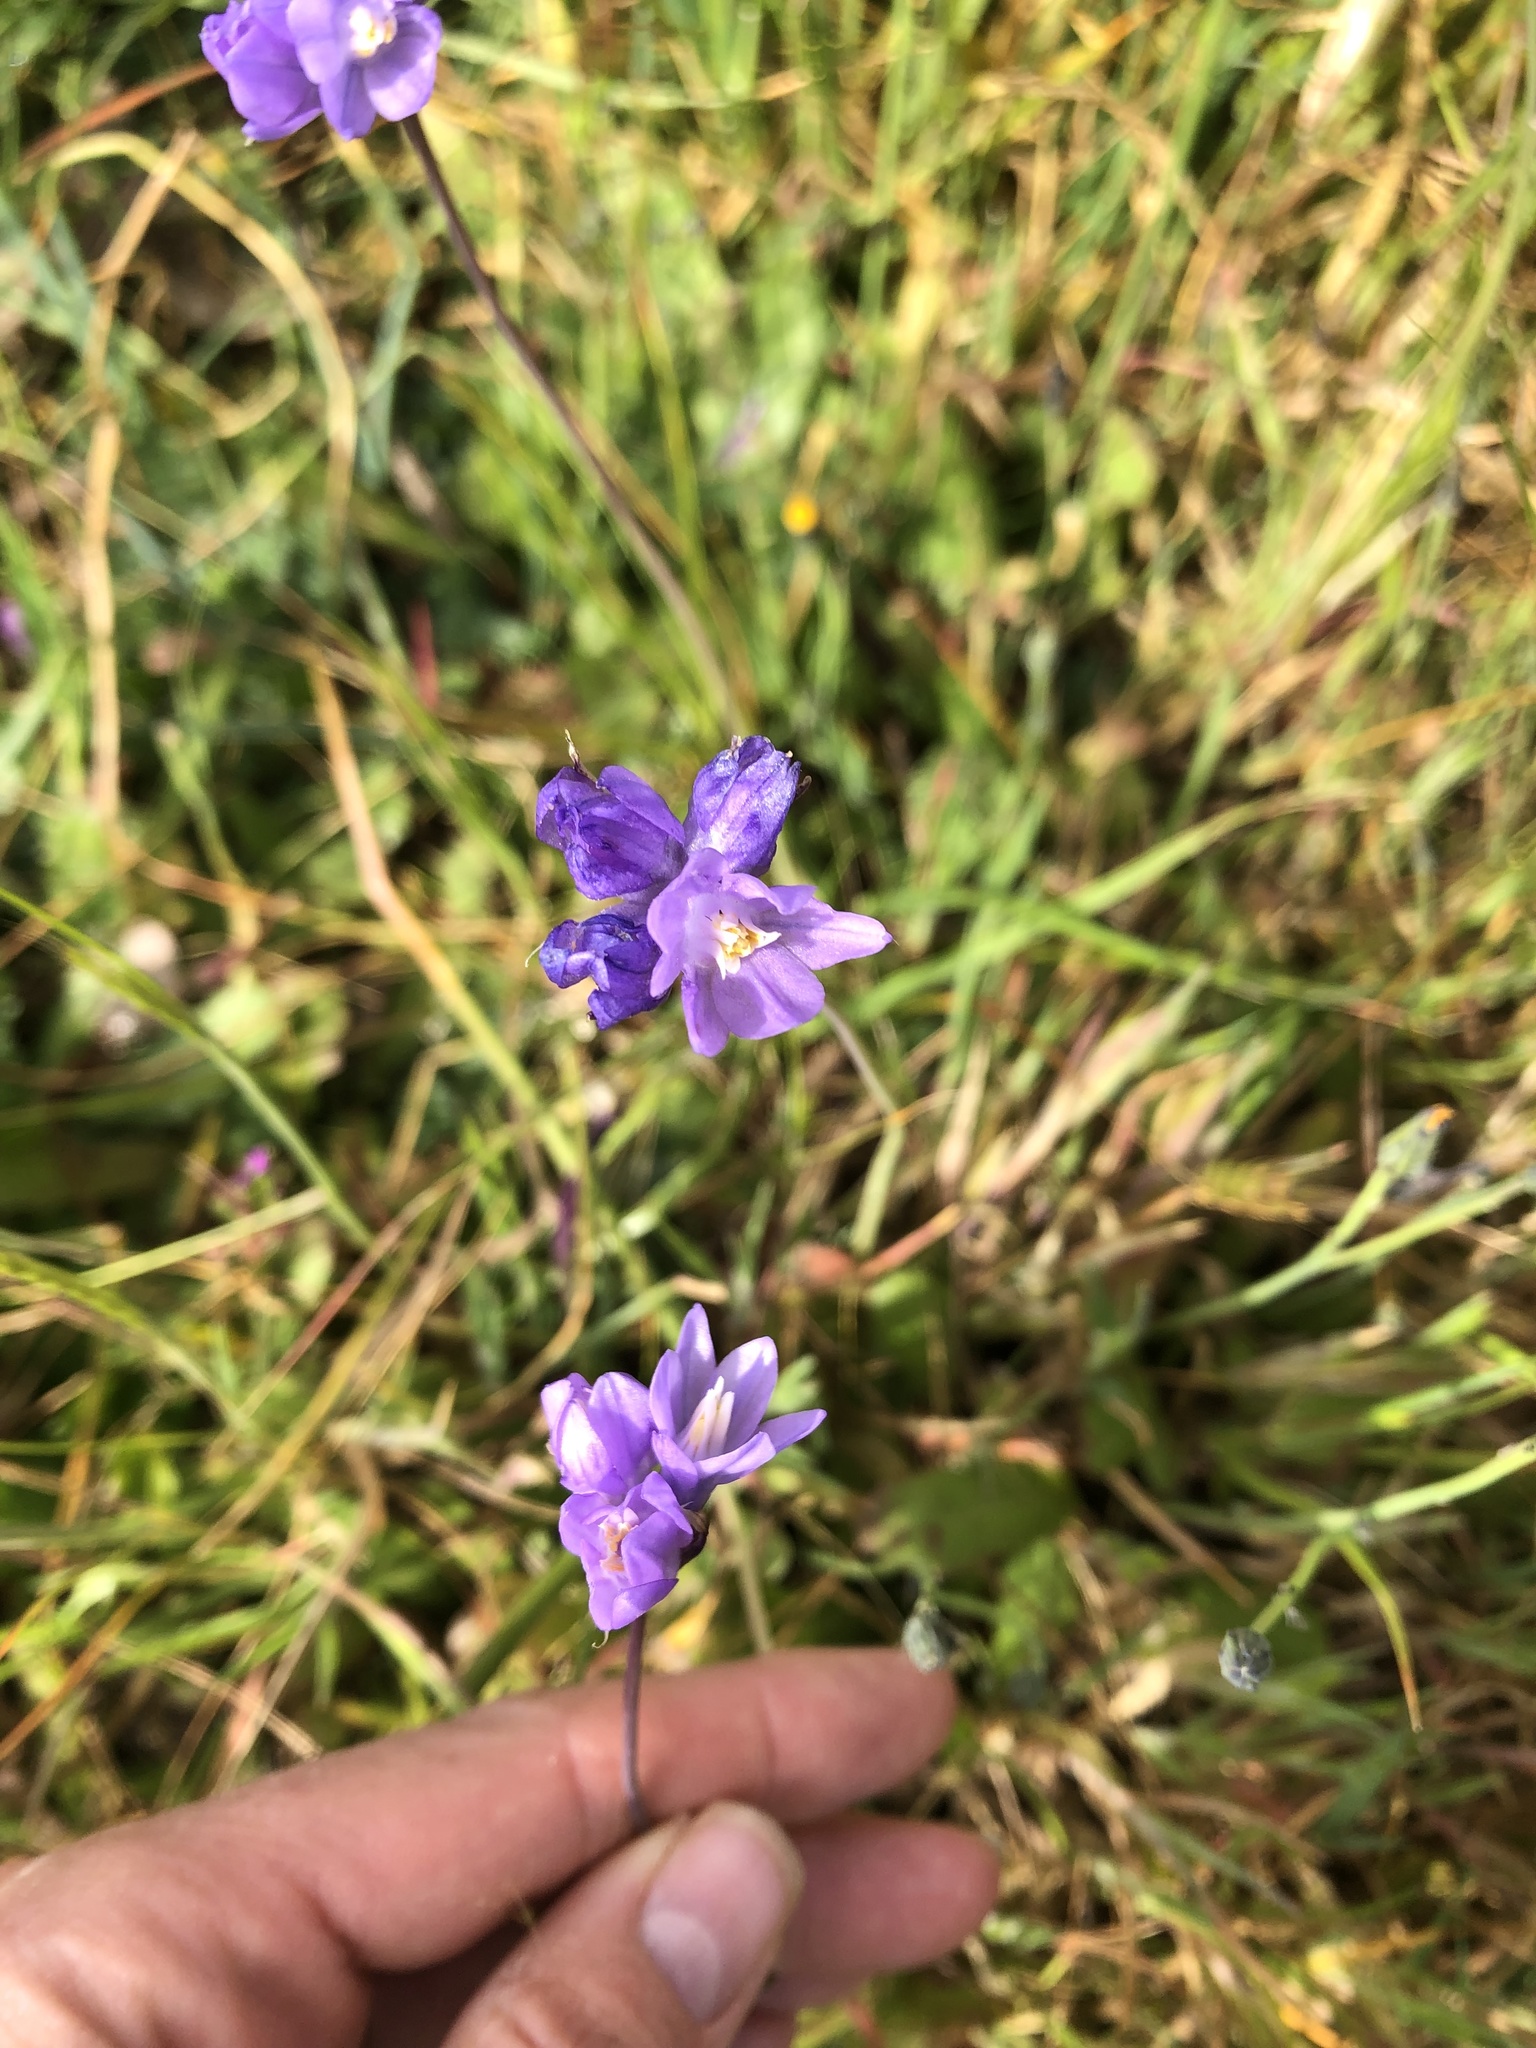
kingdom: Plantae
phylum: Tracheophyta
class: Liliopsida
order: Asparagales
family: Asparagaceae
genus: Dipterostemon
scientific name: Dipterostemon capitatus
